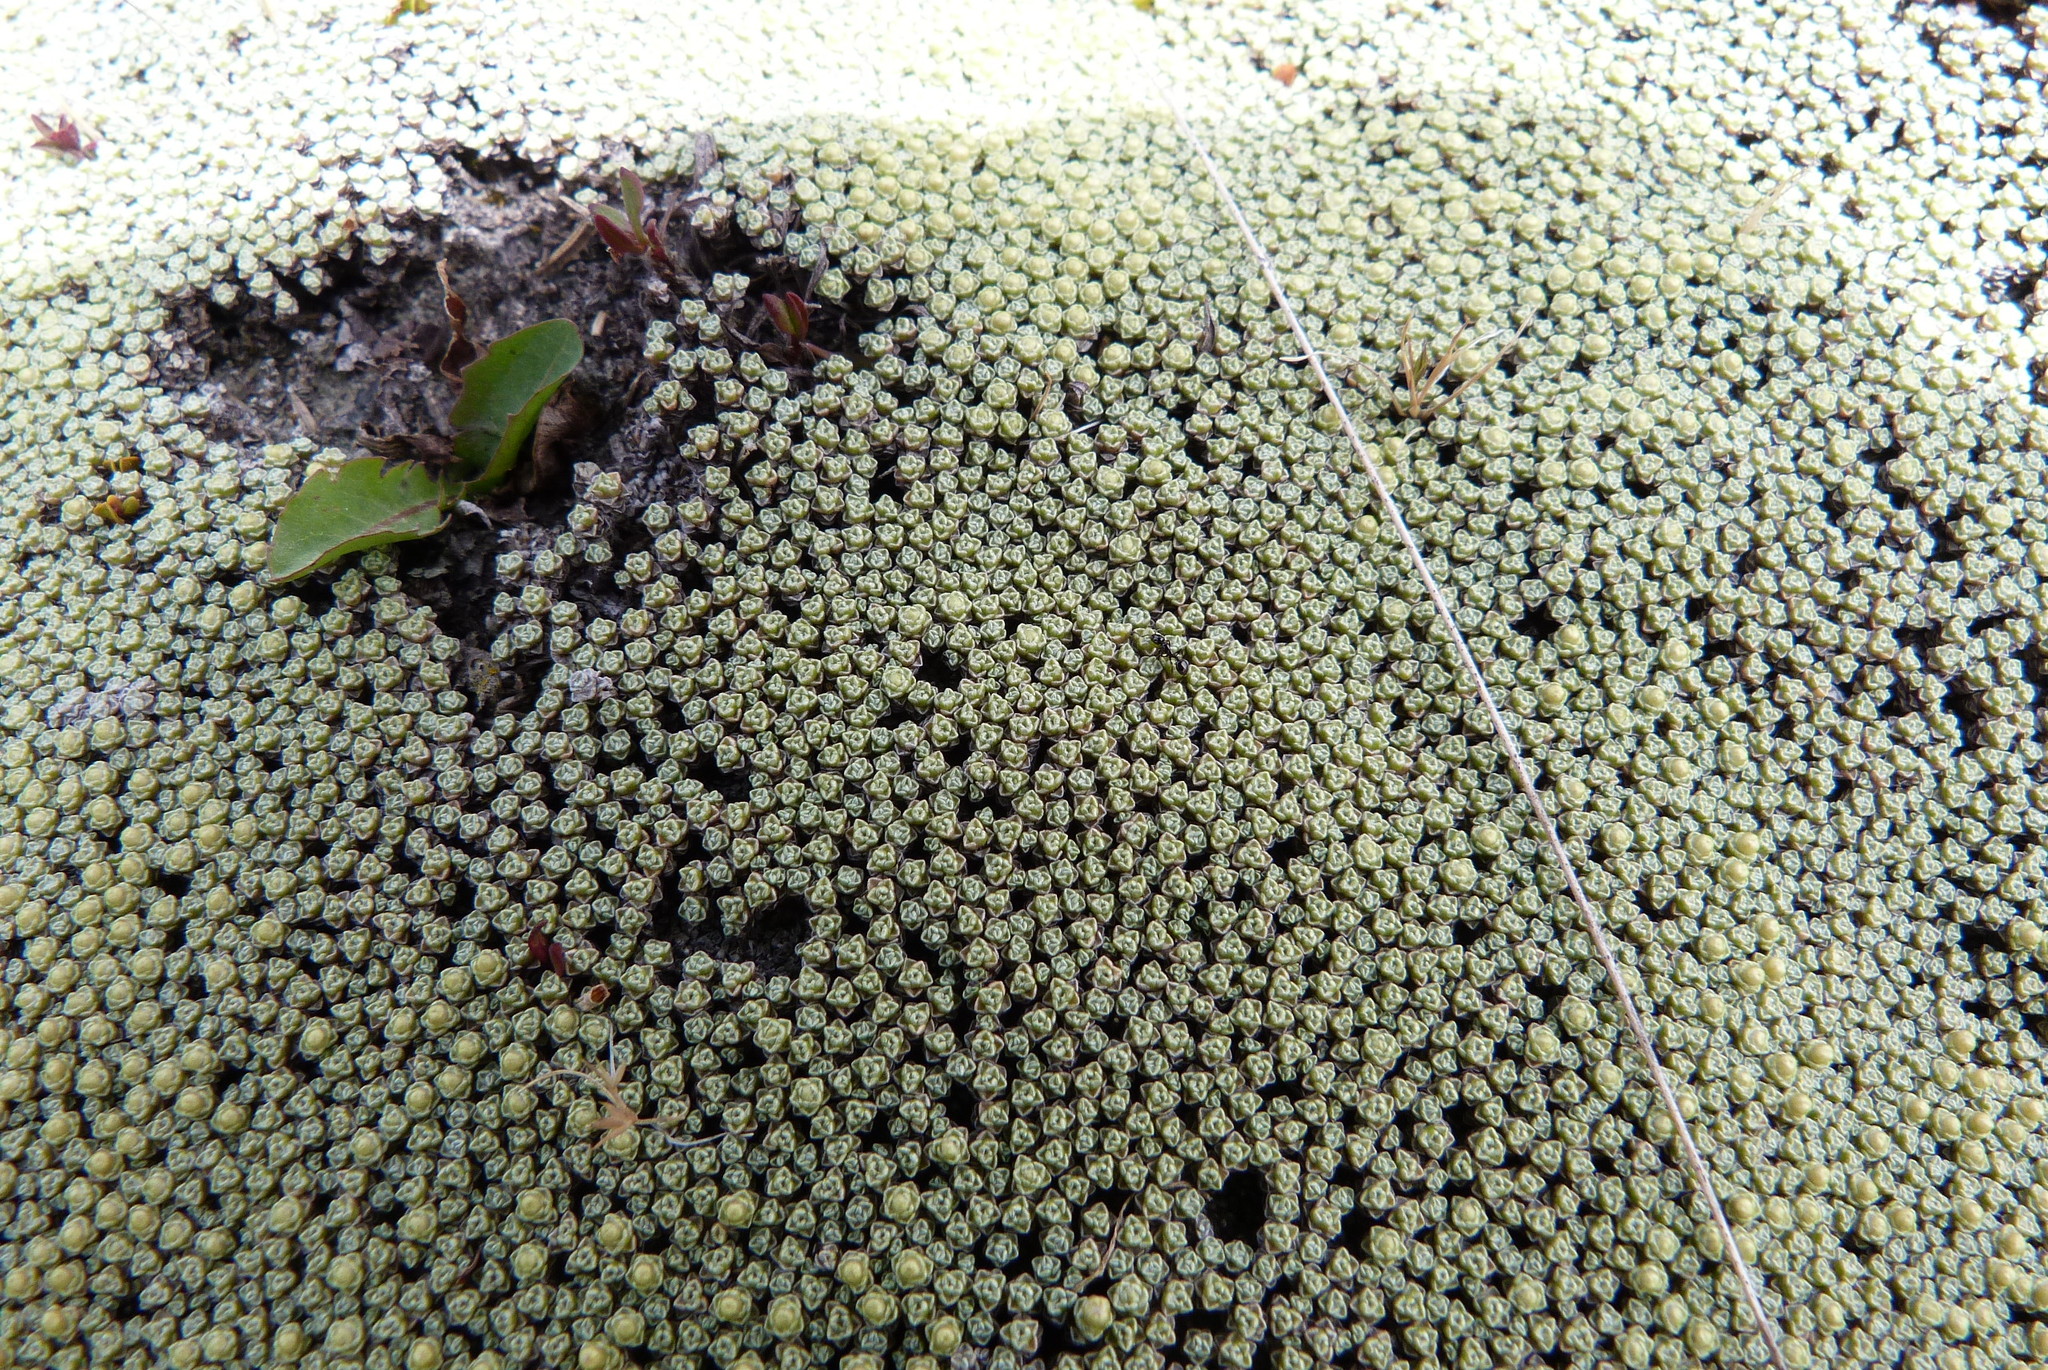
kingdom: Plantae
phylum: Tracheophyta
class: Magnoliopsida
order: Asterales
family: Asteraceae
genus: Raoulia
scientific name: Raoulia australis
